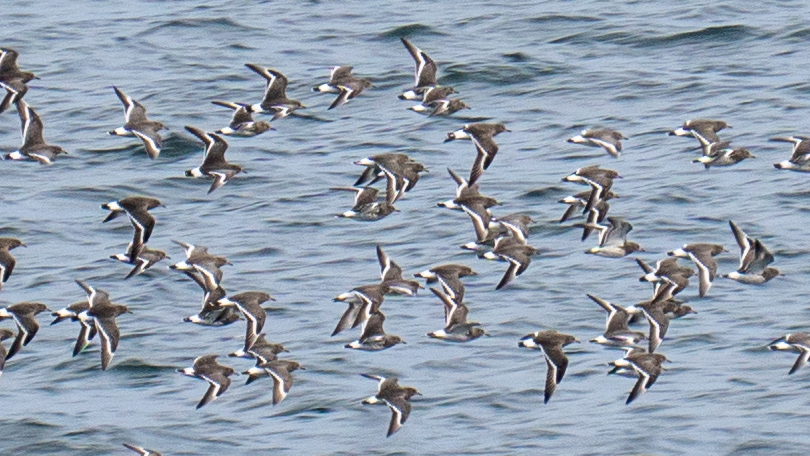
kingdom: Animalia
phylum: Chordata
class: Aves
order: Charadriiformes
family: Scolopacidae
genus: Calidris
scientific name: Calidris virgata
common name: Surfbird
